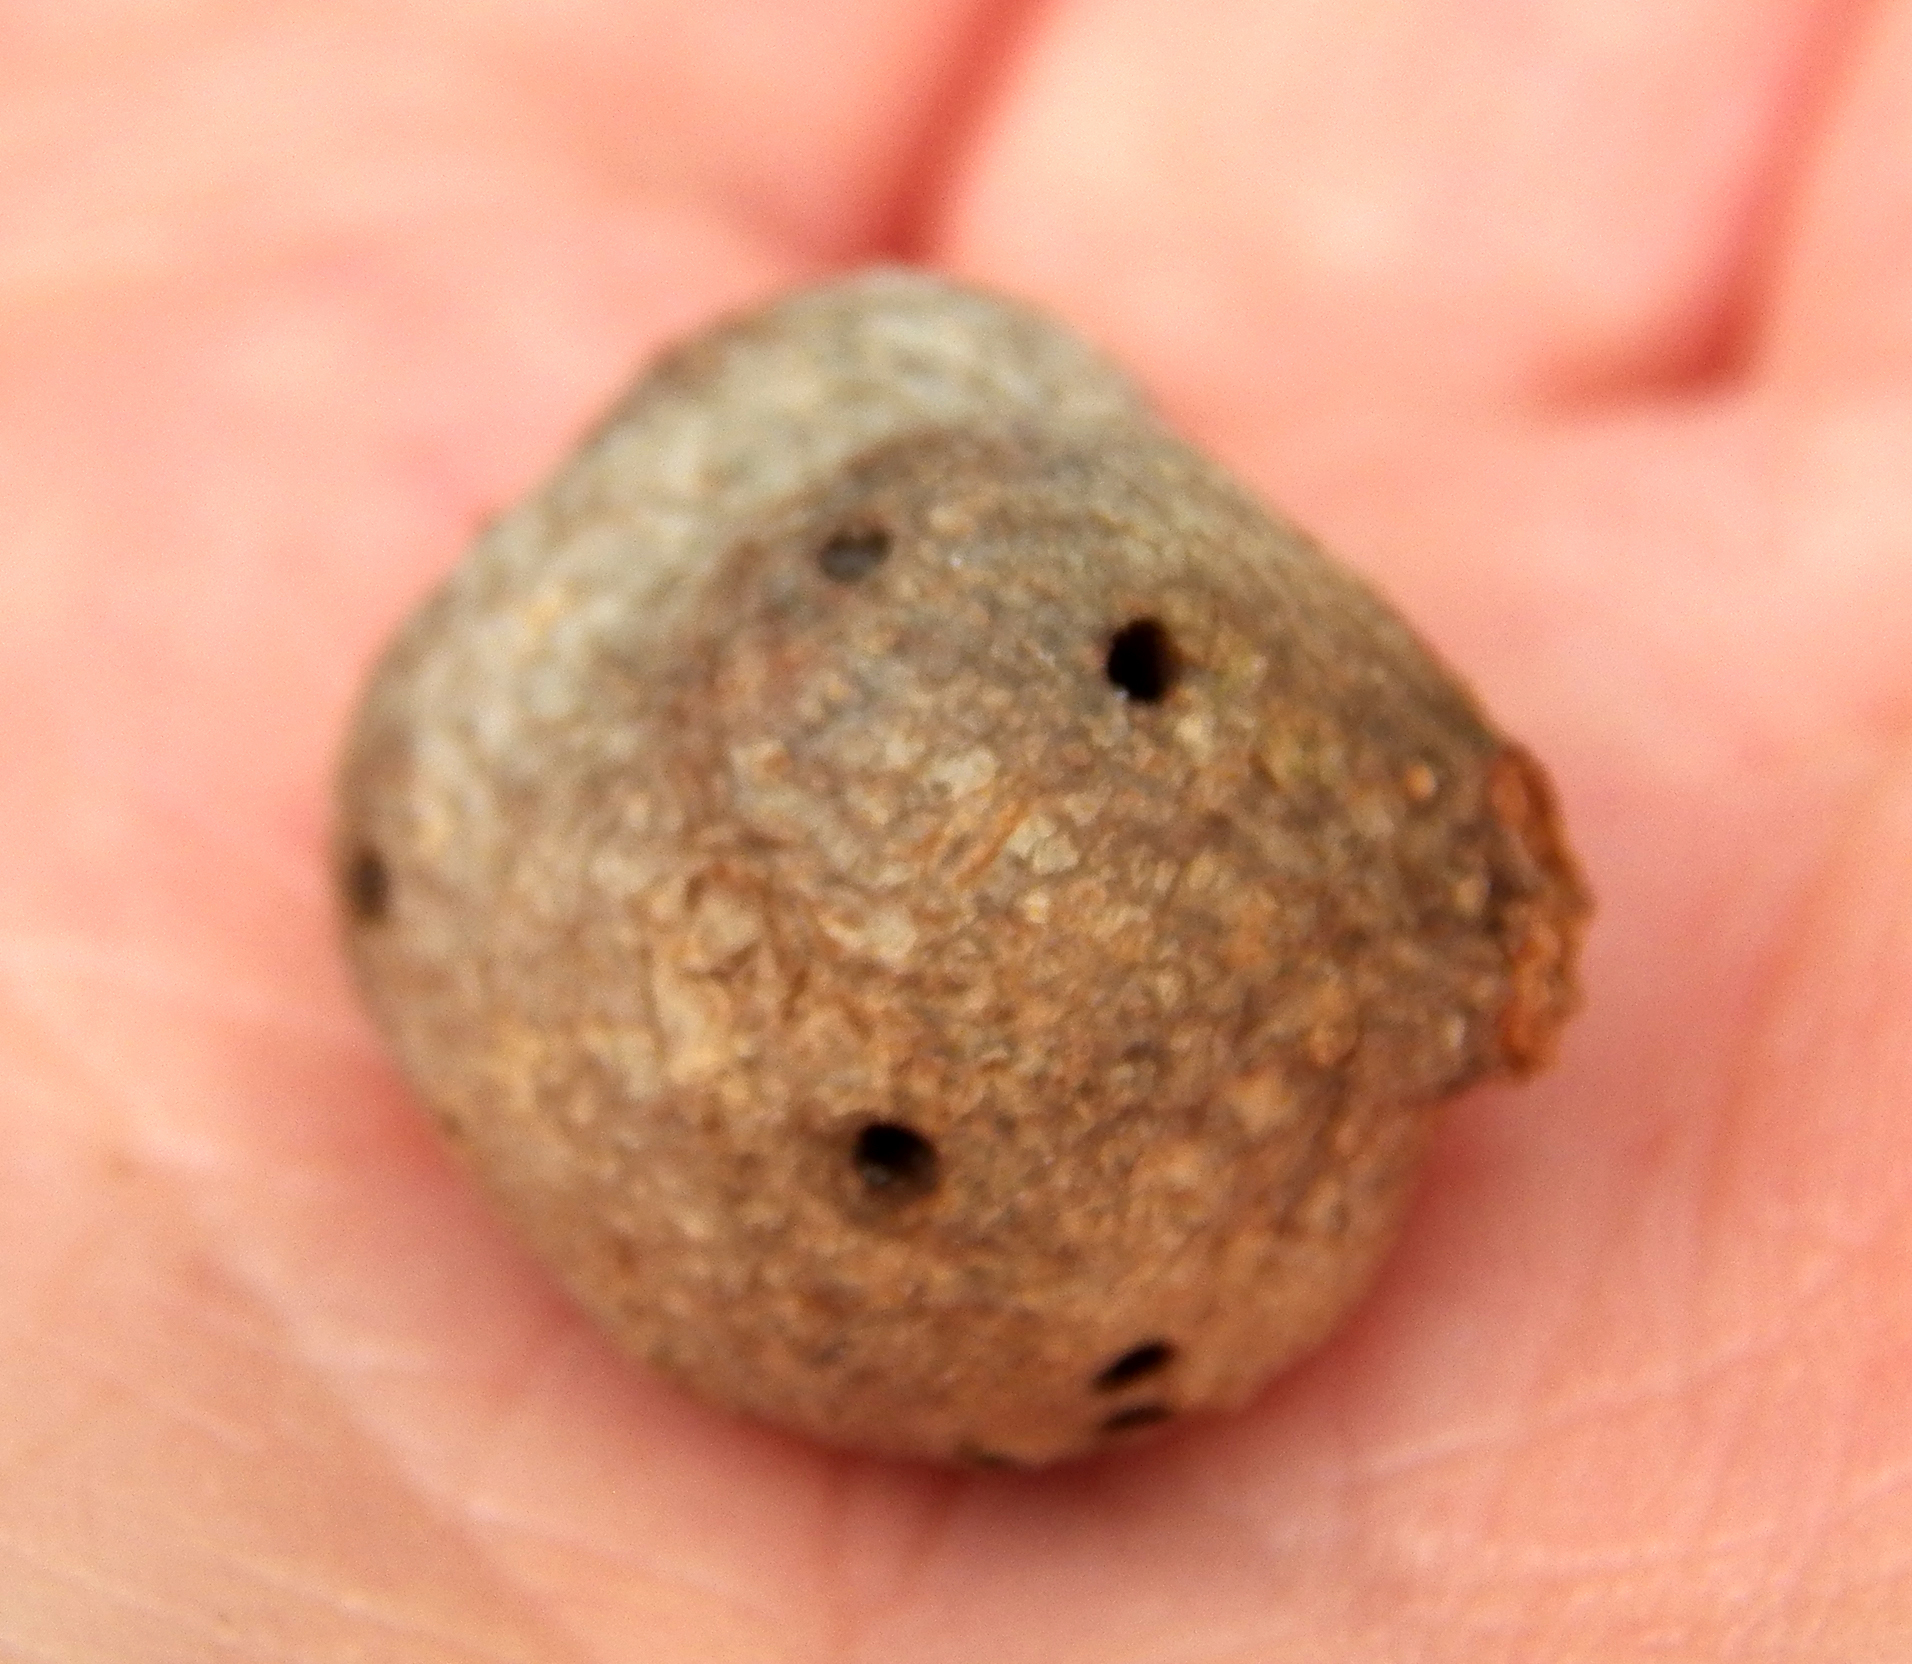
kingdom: Animalia
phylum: Arthropoda
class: Insecta
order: Hymenoptera
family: Cynipidae
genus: Callirhytis
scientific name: Callirhytis
